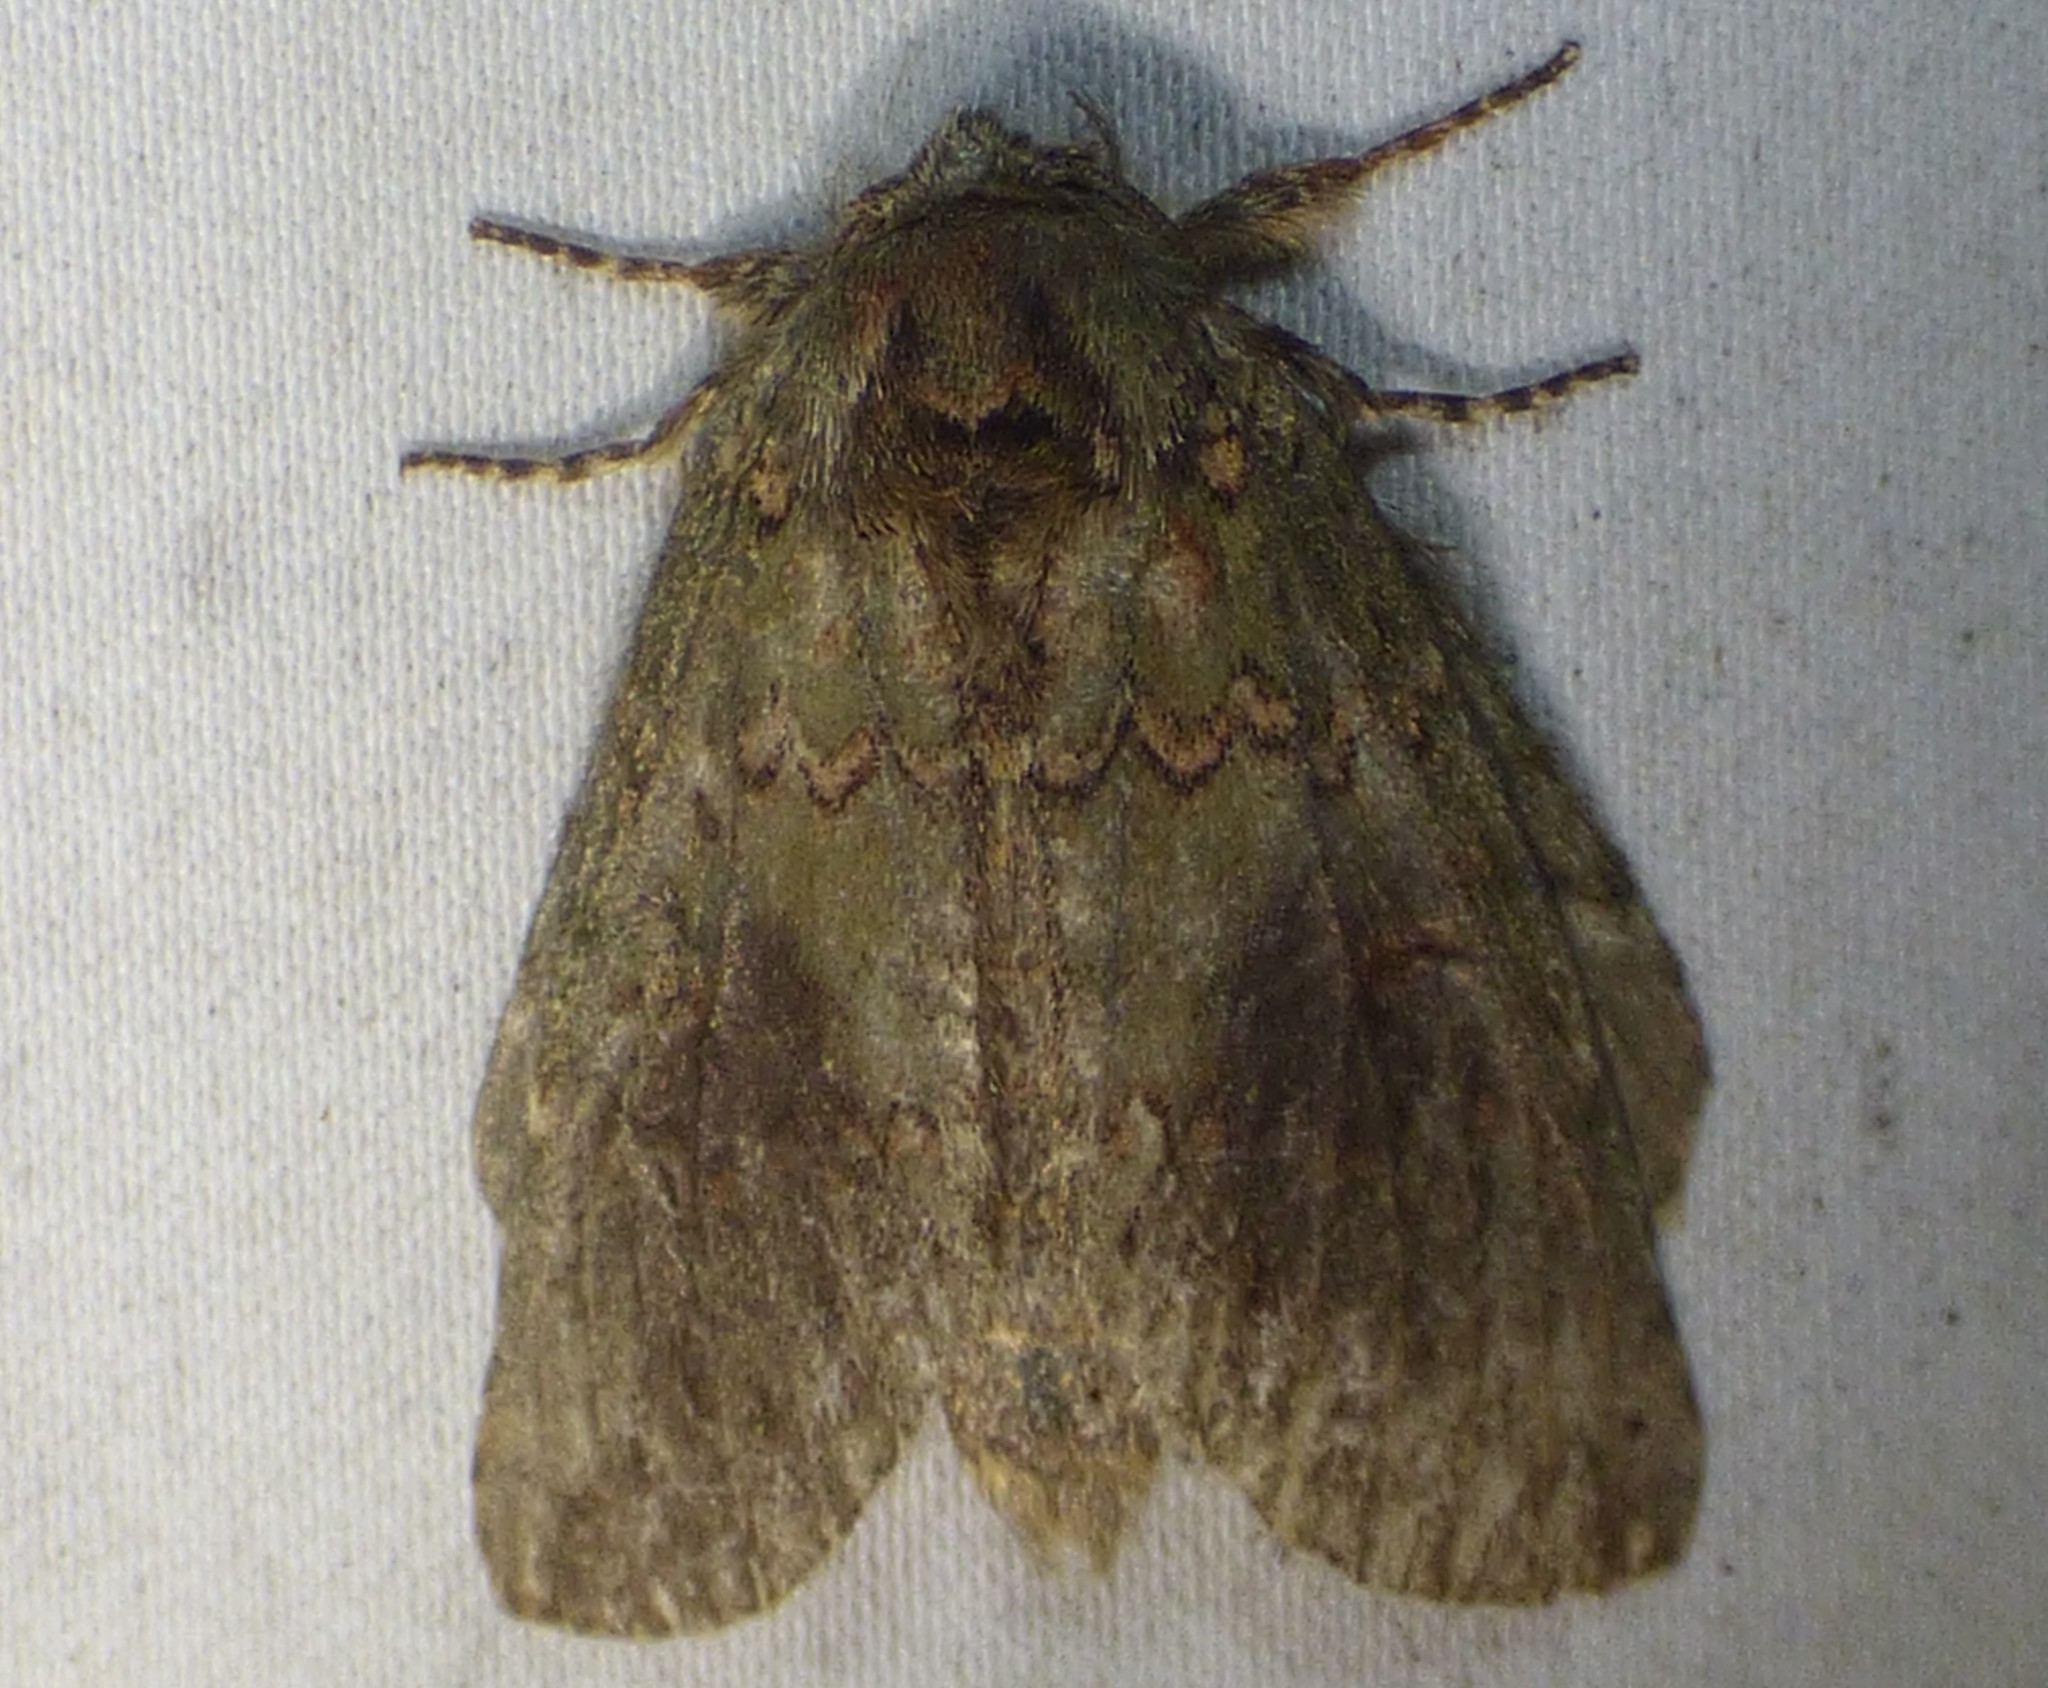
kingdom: Animalia
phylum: Arthropoda
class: Insecta
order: Lepidoptera
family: Notodontidae
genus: Disphragis
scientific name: Disphragis Cecrita biundata
